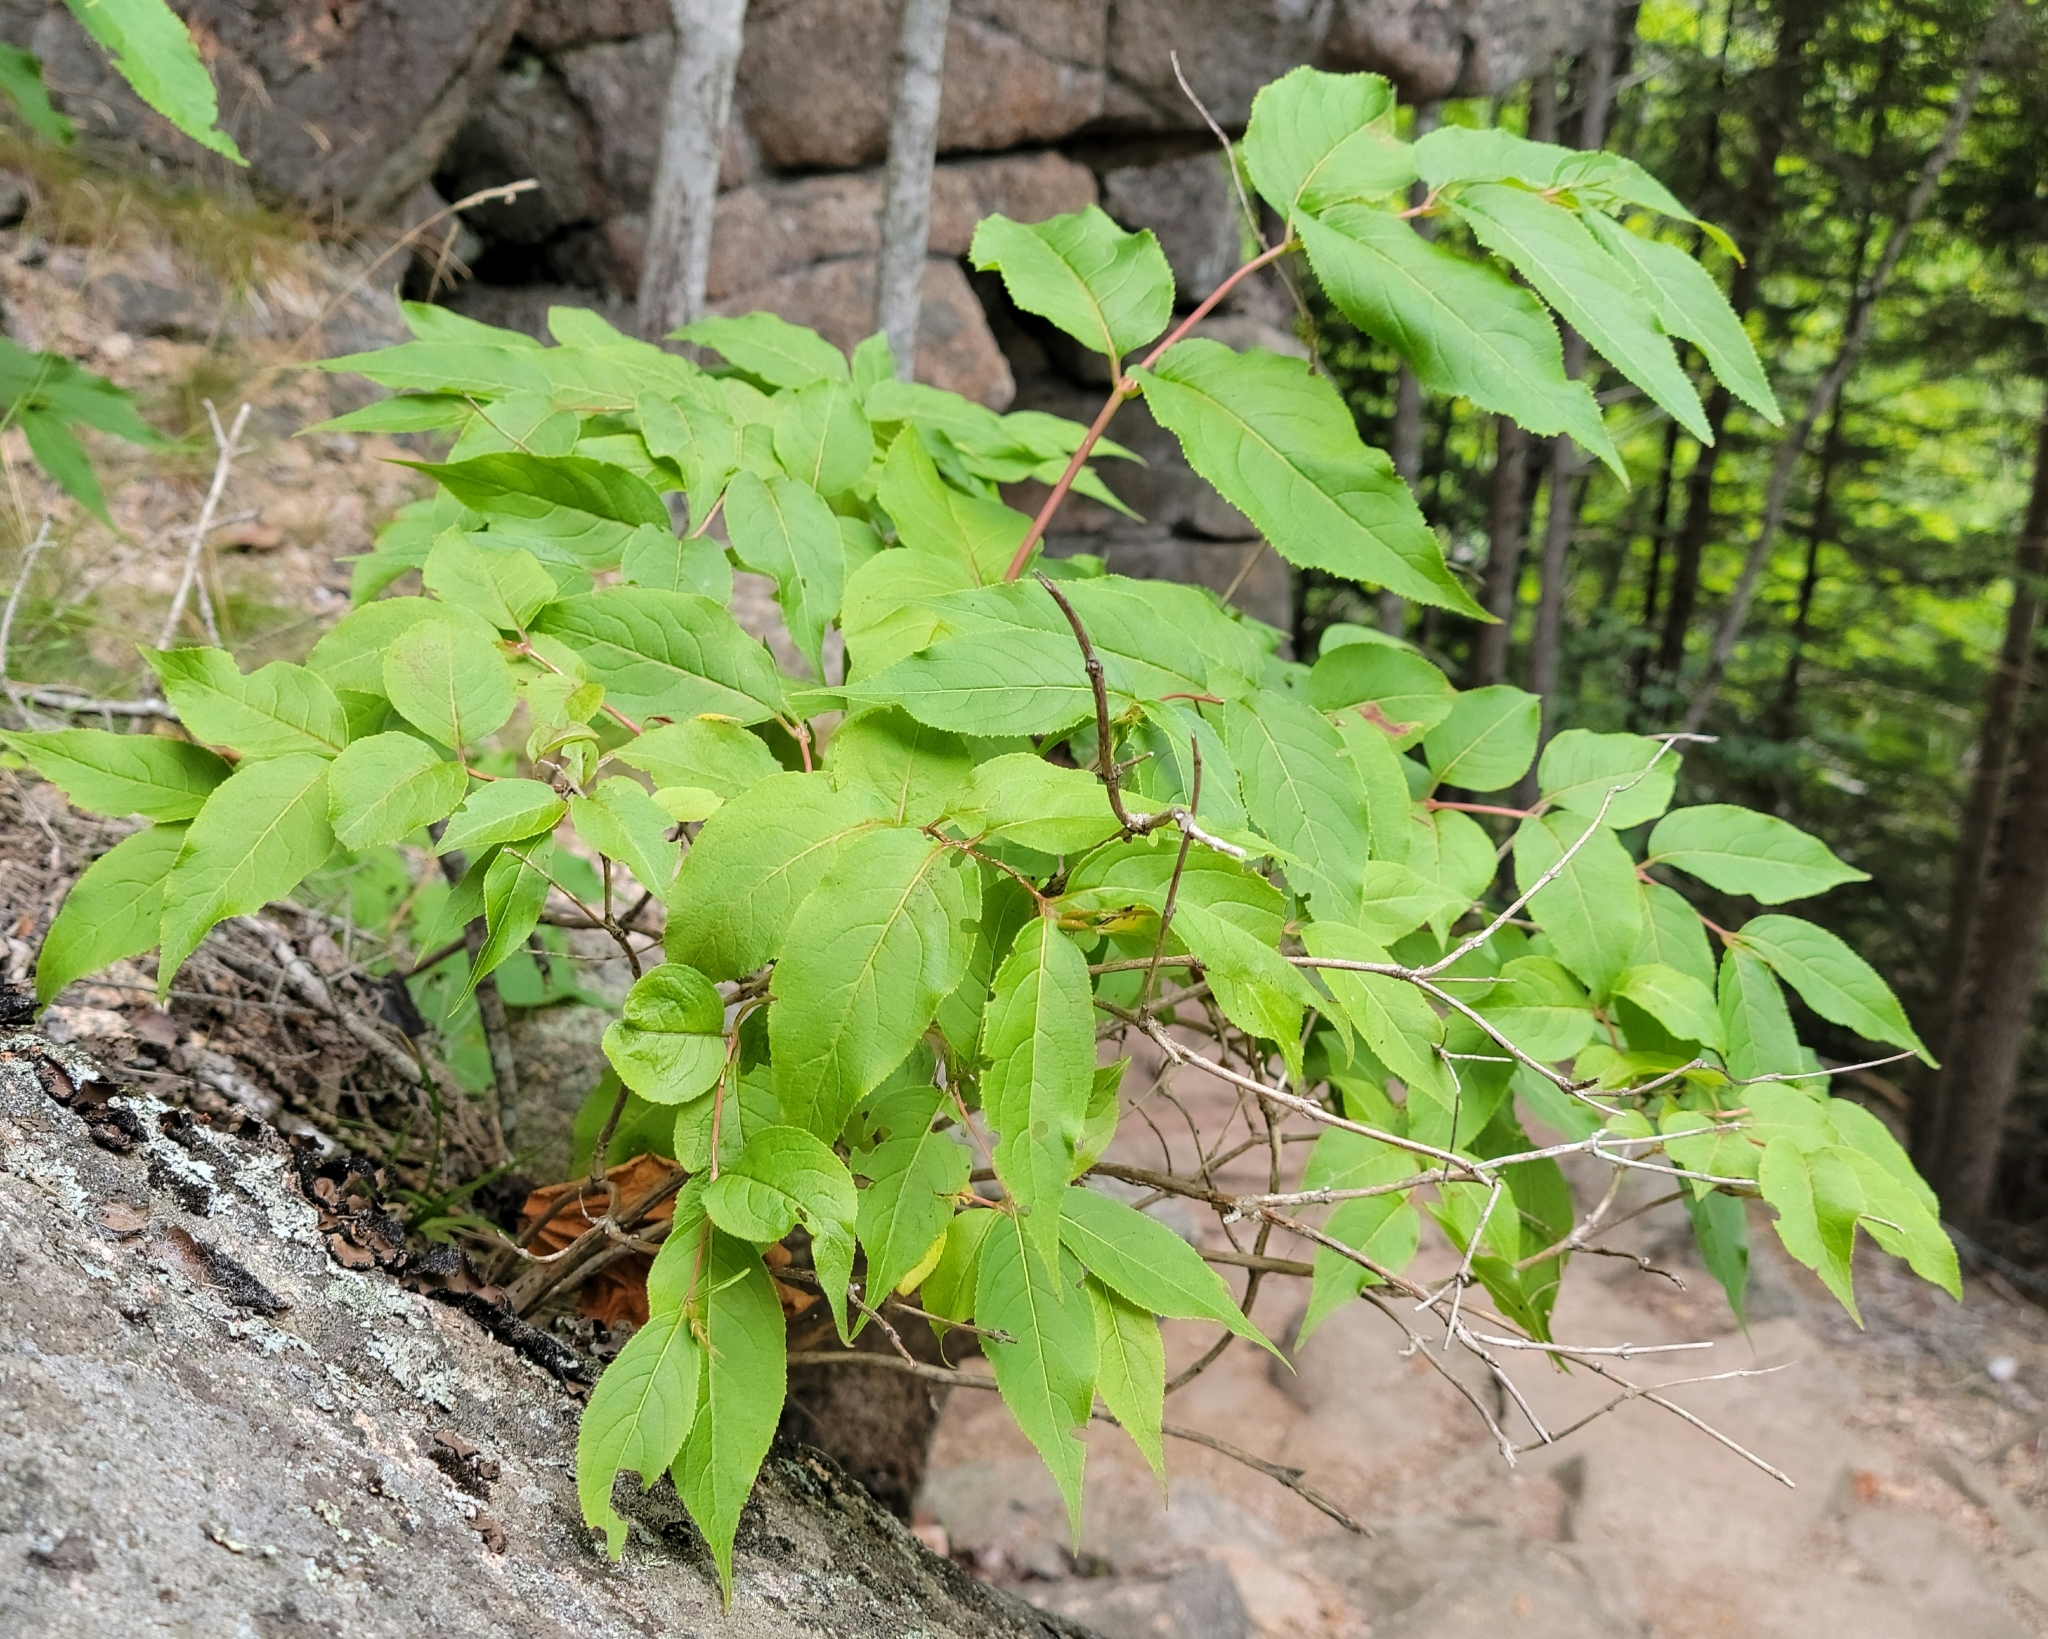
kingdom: Plantae
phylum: Tracheophyta
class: Magnoliopsida
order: Dipsacales
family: Viburnaceae
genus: Sambucus
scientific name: Sambucus racemosa
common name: Red-berried elder
